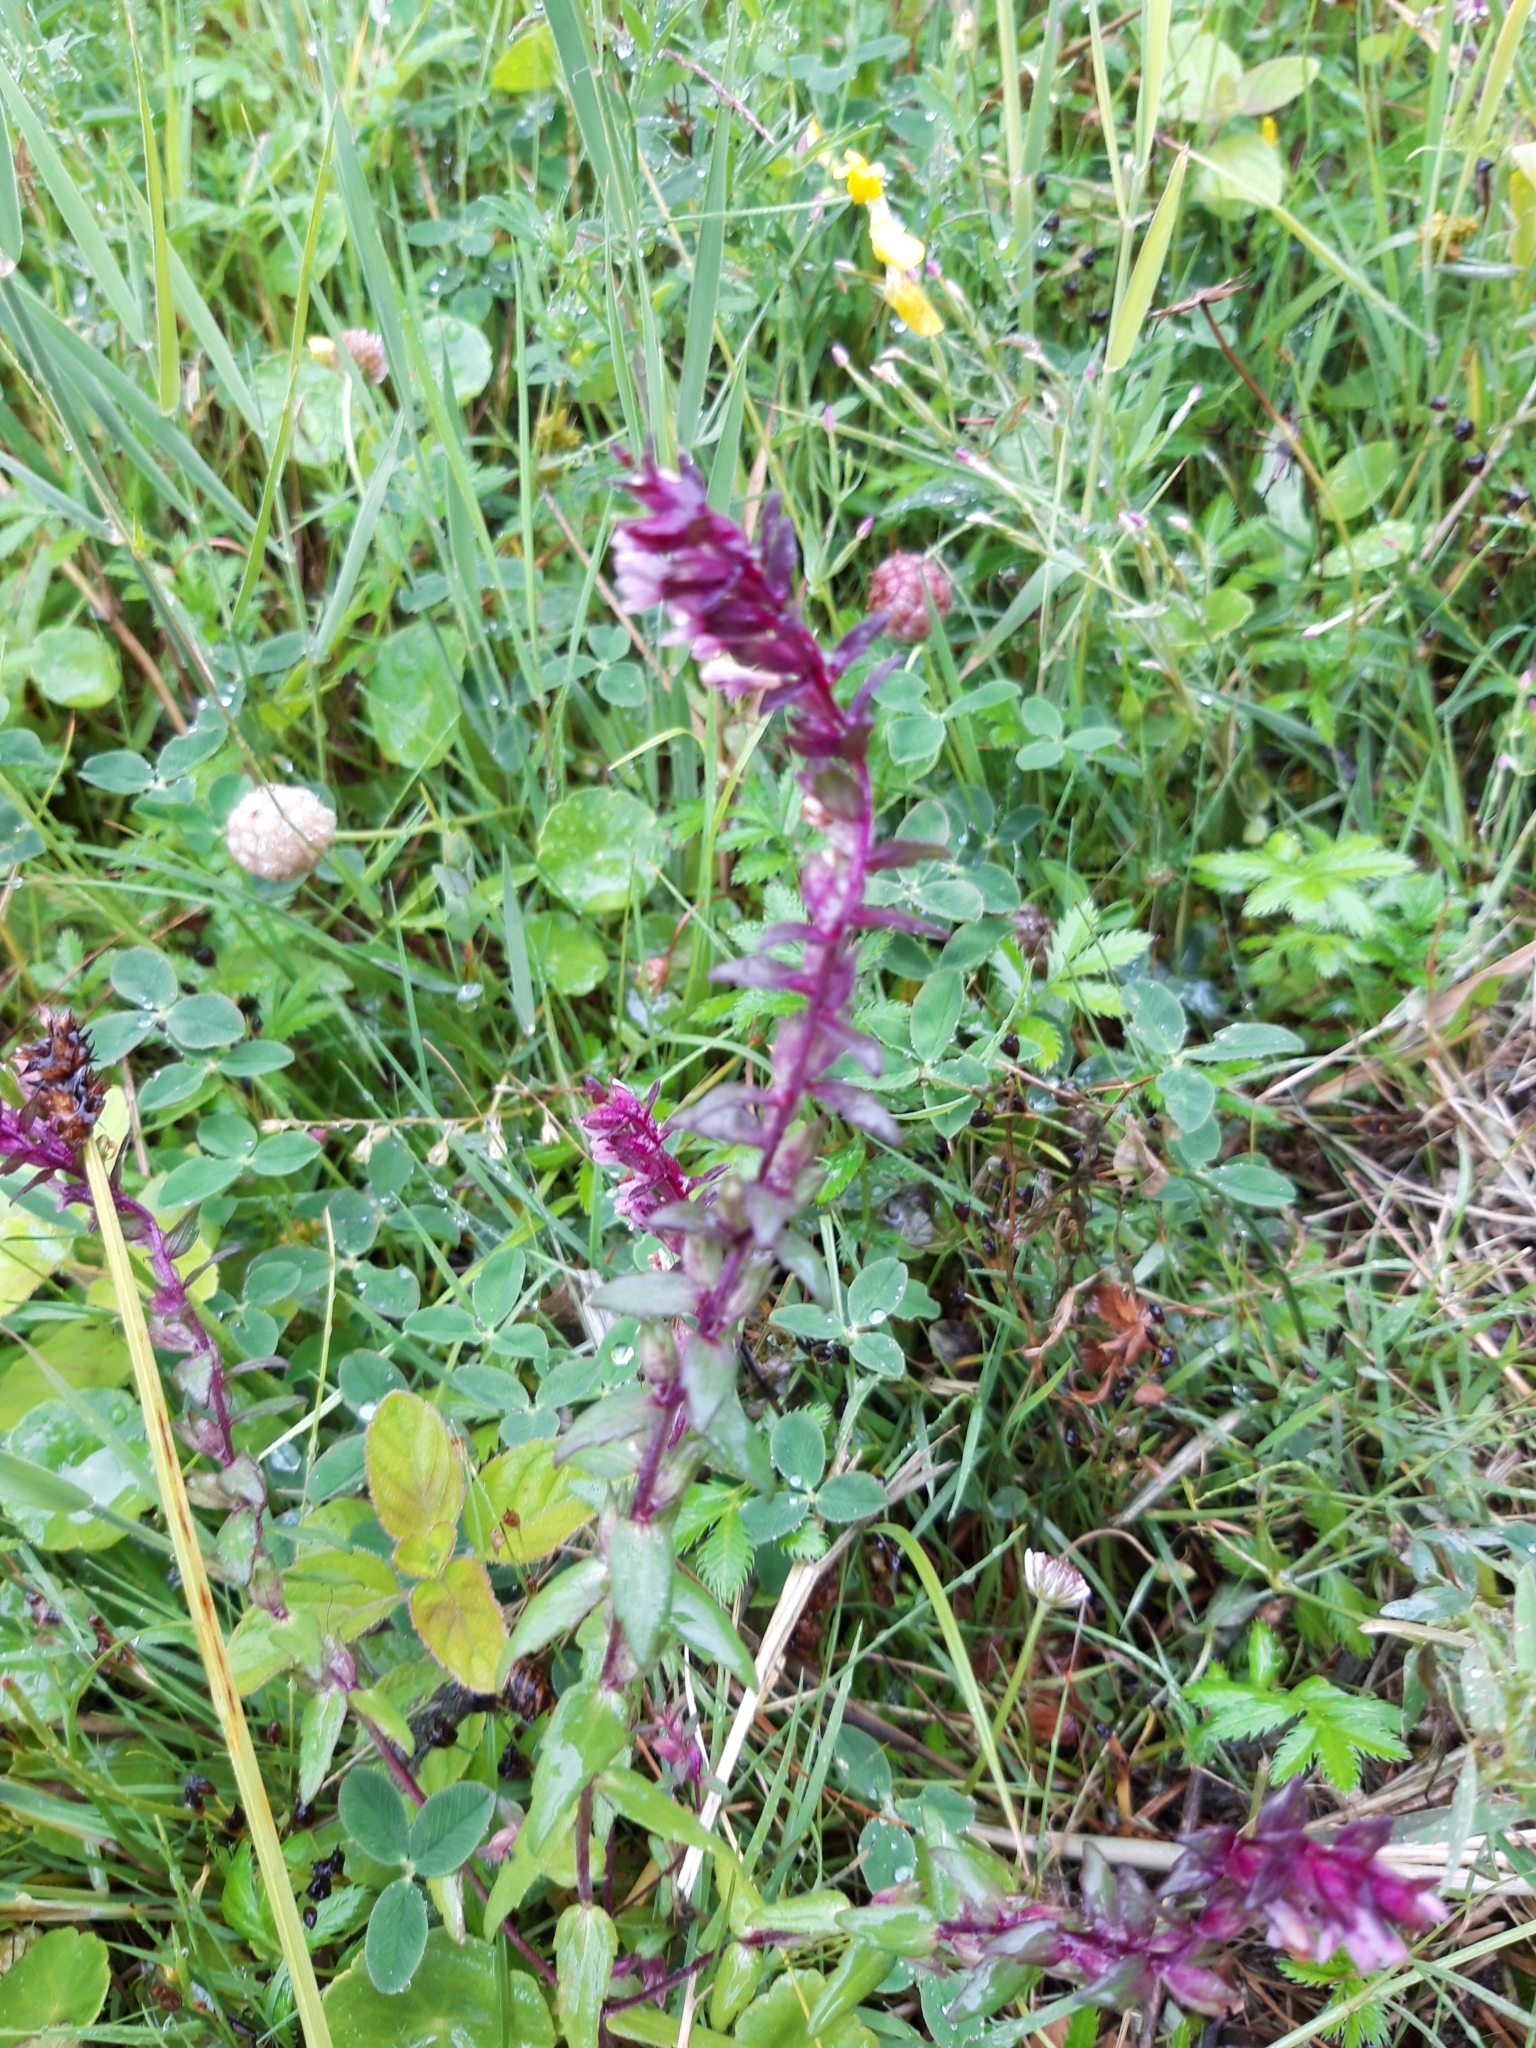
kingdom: Plantae
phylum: Tracheophyta
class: Magnoliopsida
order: Lamiales
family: Orobanchaceae
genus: Odontites
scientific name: Odontites vulgaris
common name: Broomrape
